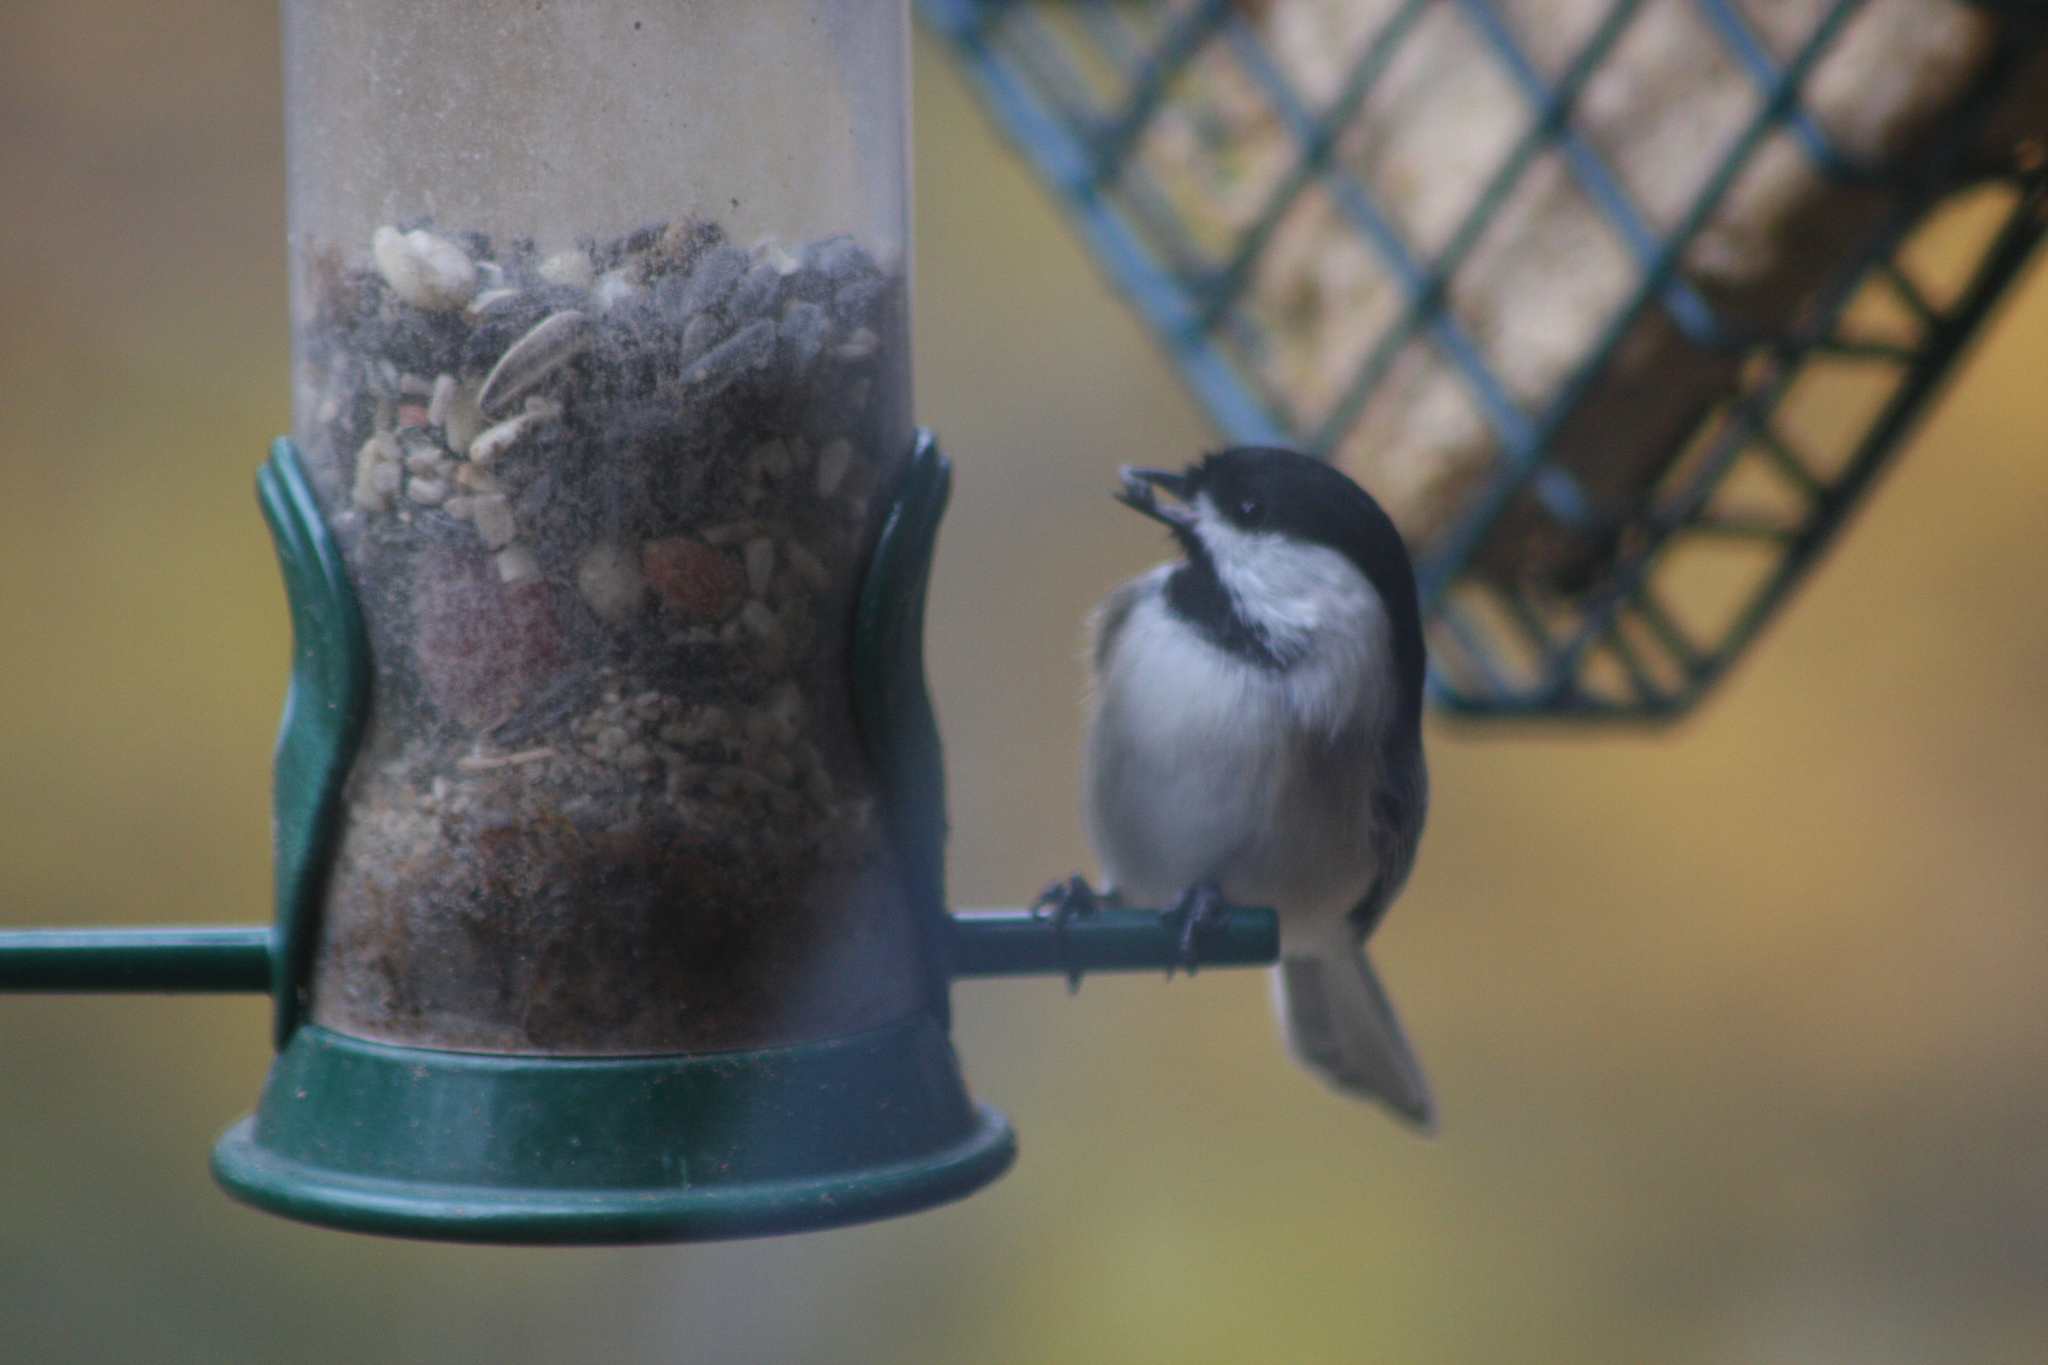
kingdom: Animalia
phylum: Chordata
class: Aves
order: Passeriformes
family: Paridae
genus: Poecile
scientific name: Poecile atricapillus
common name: Black-capped chickadee
